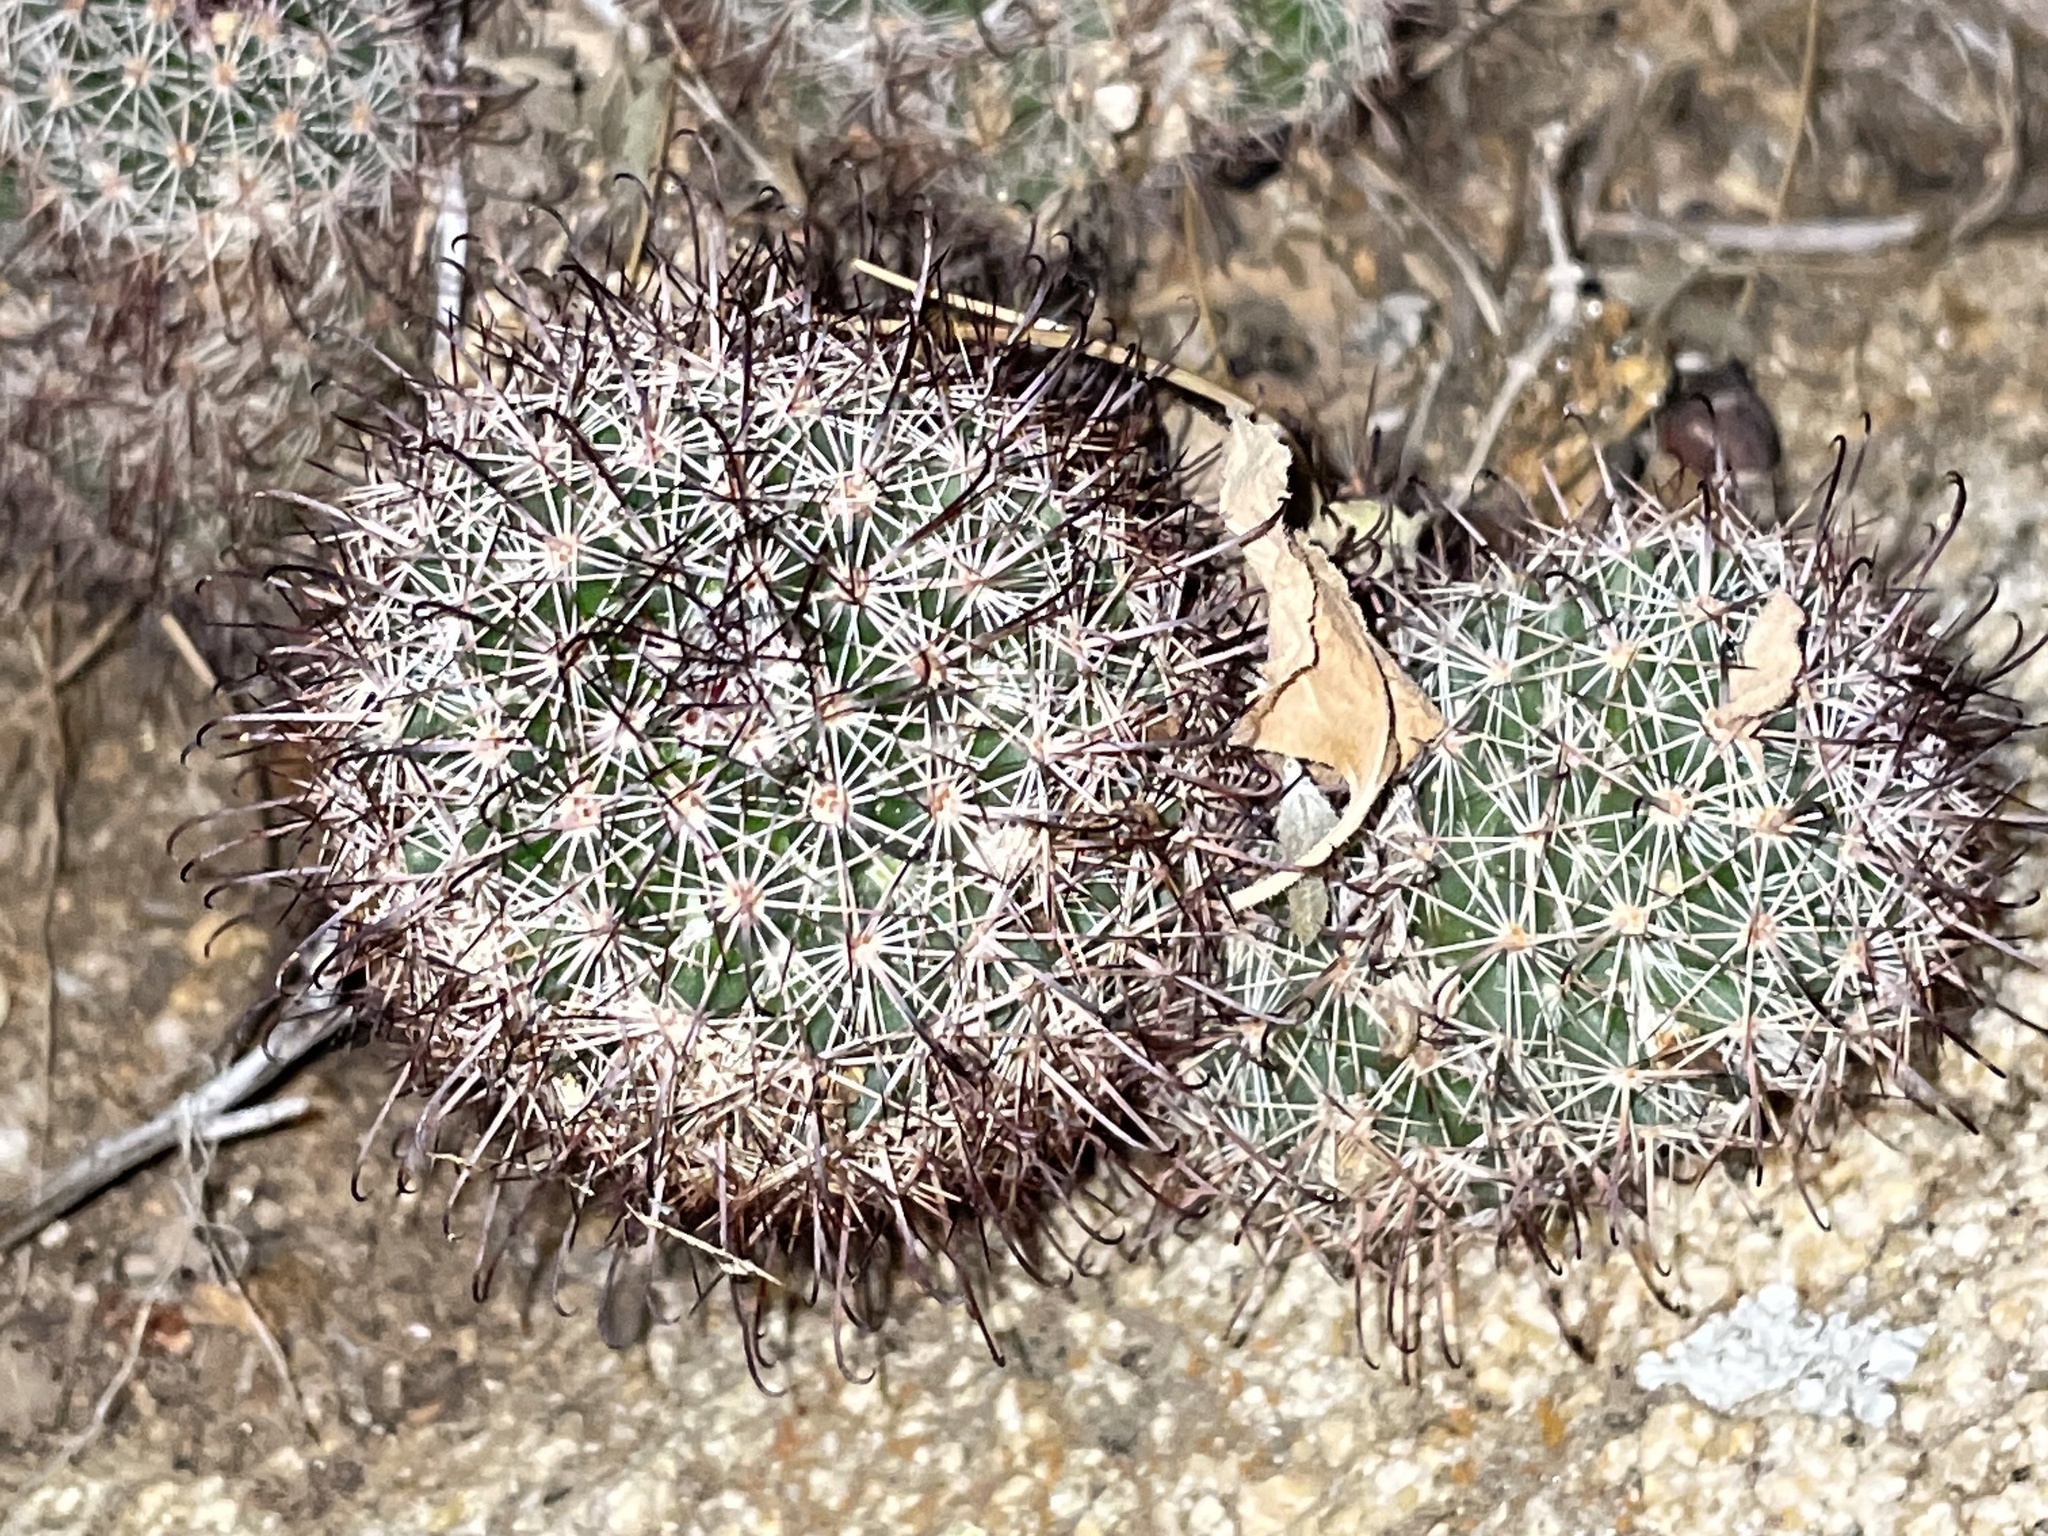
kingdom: Plantae
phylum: Tracheophyta
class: Magnoliopsida
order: Caryophyllales
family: Cactaceae
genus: Cochemiea
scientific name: Cochemiea dioica
